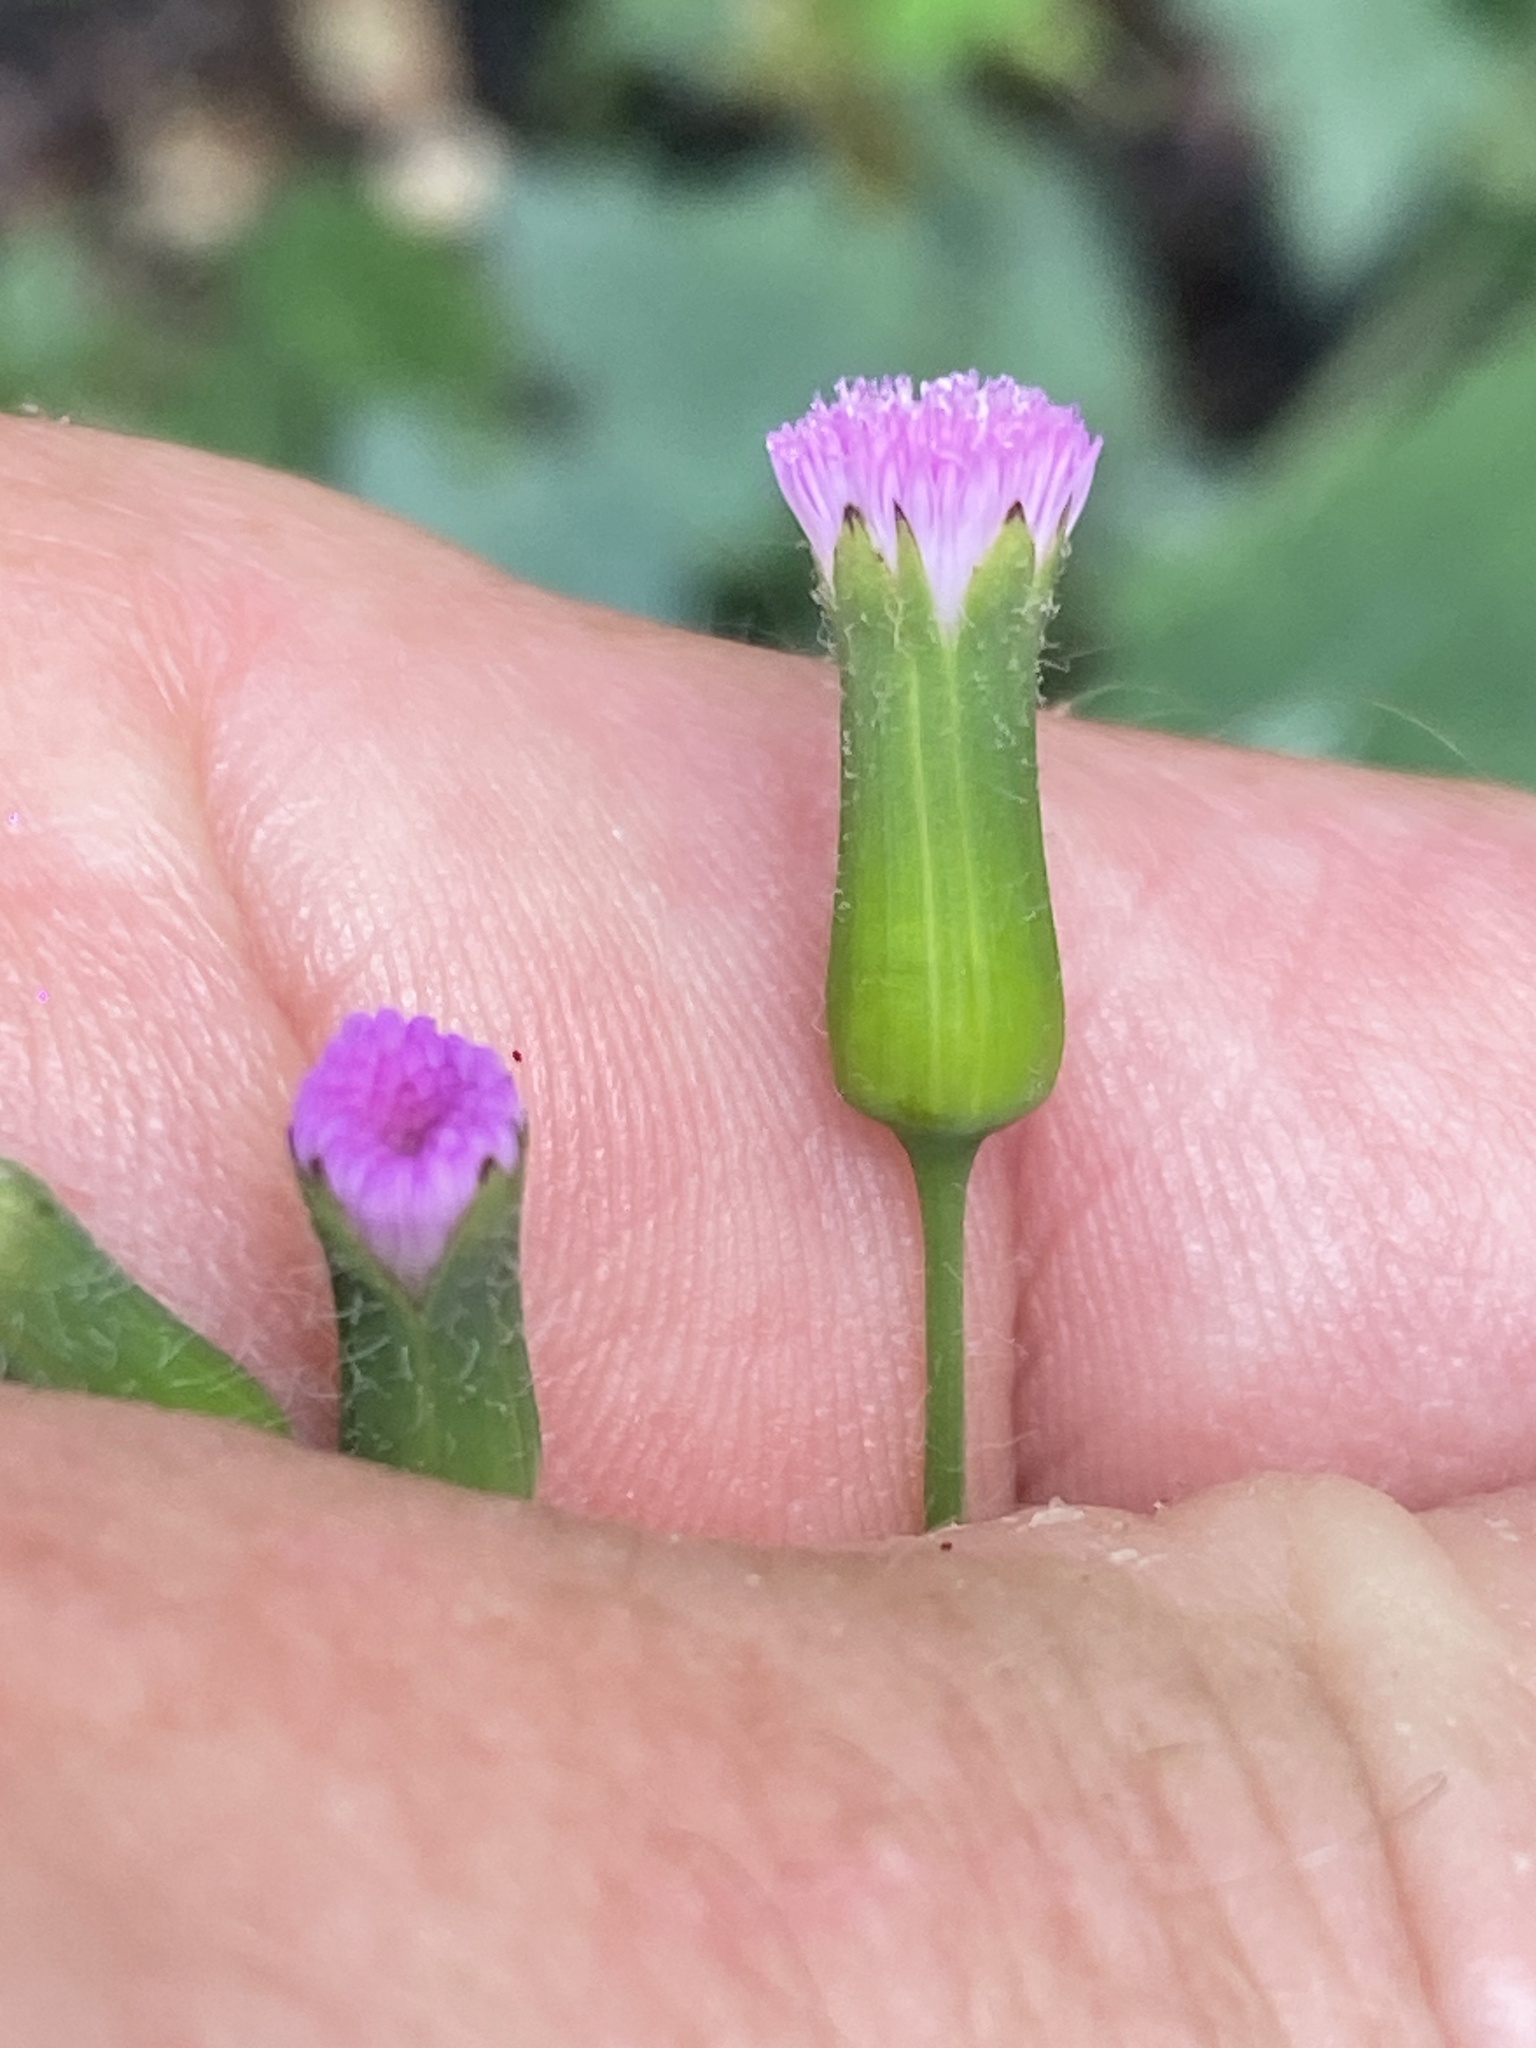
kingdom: Plantae
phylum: Tracheophyta
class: Magnoliopsida
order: Asterales
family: Asteraceae
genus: Emilia
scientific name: Emilia javanica
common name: Tassel-flower
